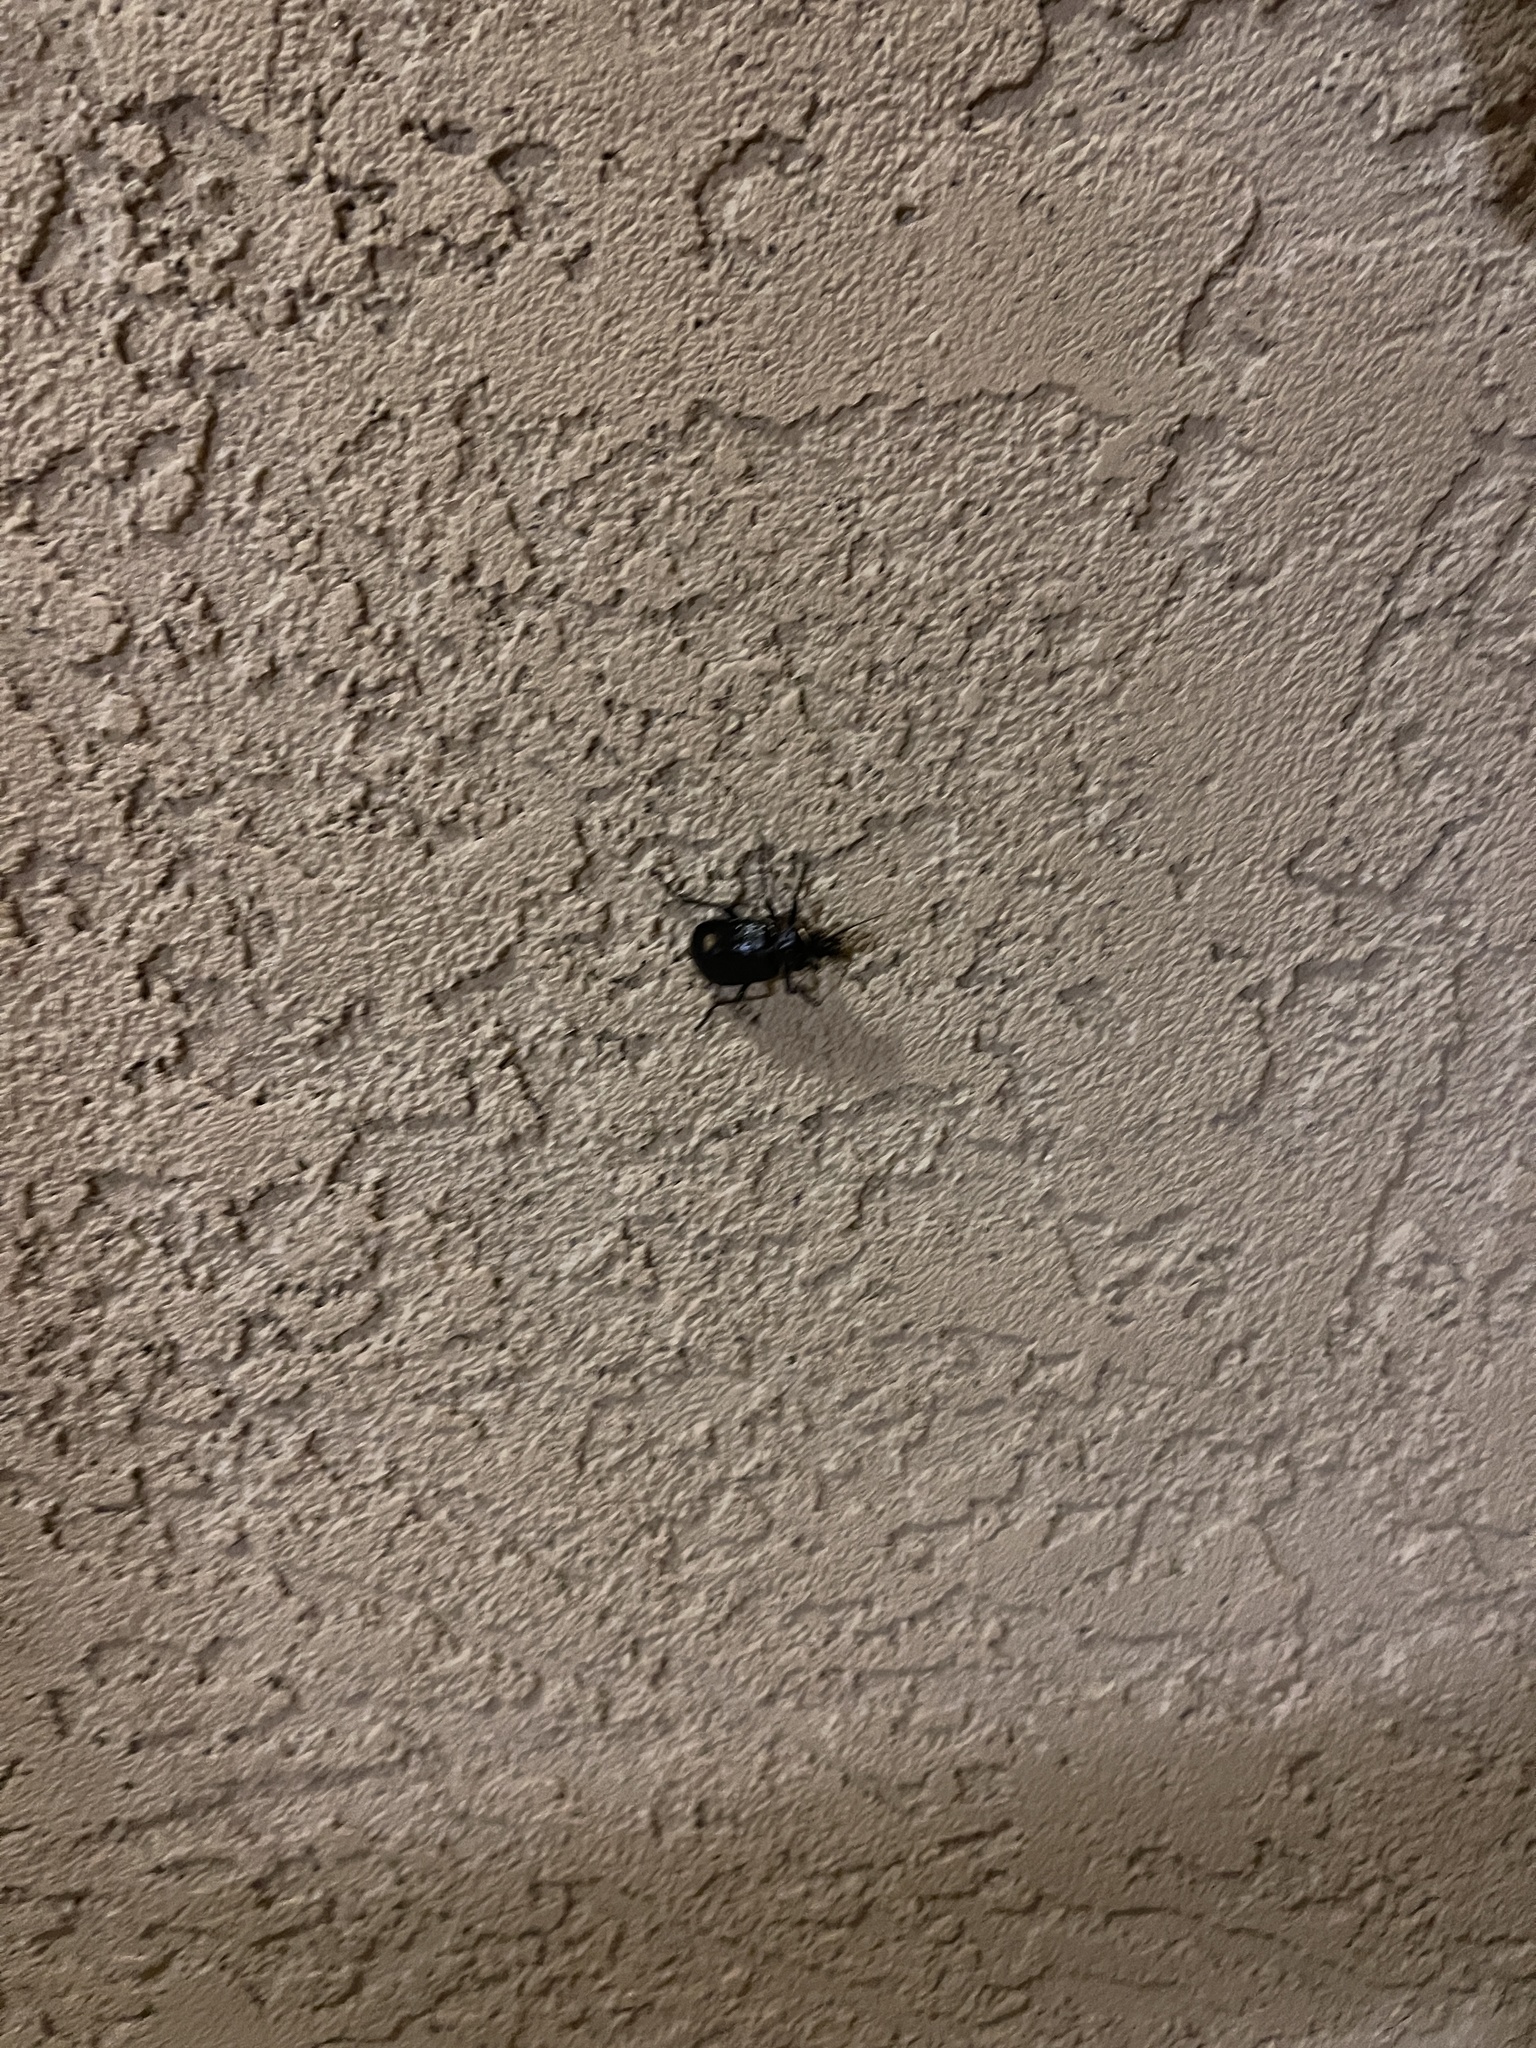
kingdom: Animalia
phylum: Arthropoda
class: Insecta
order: Coleoptera
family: Carabidae
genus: Calosoma
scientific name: Calosoma marginale
